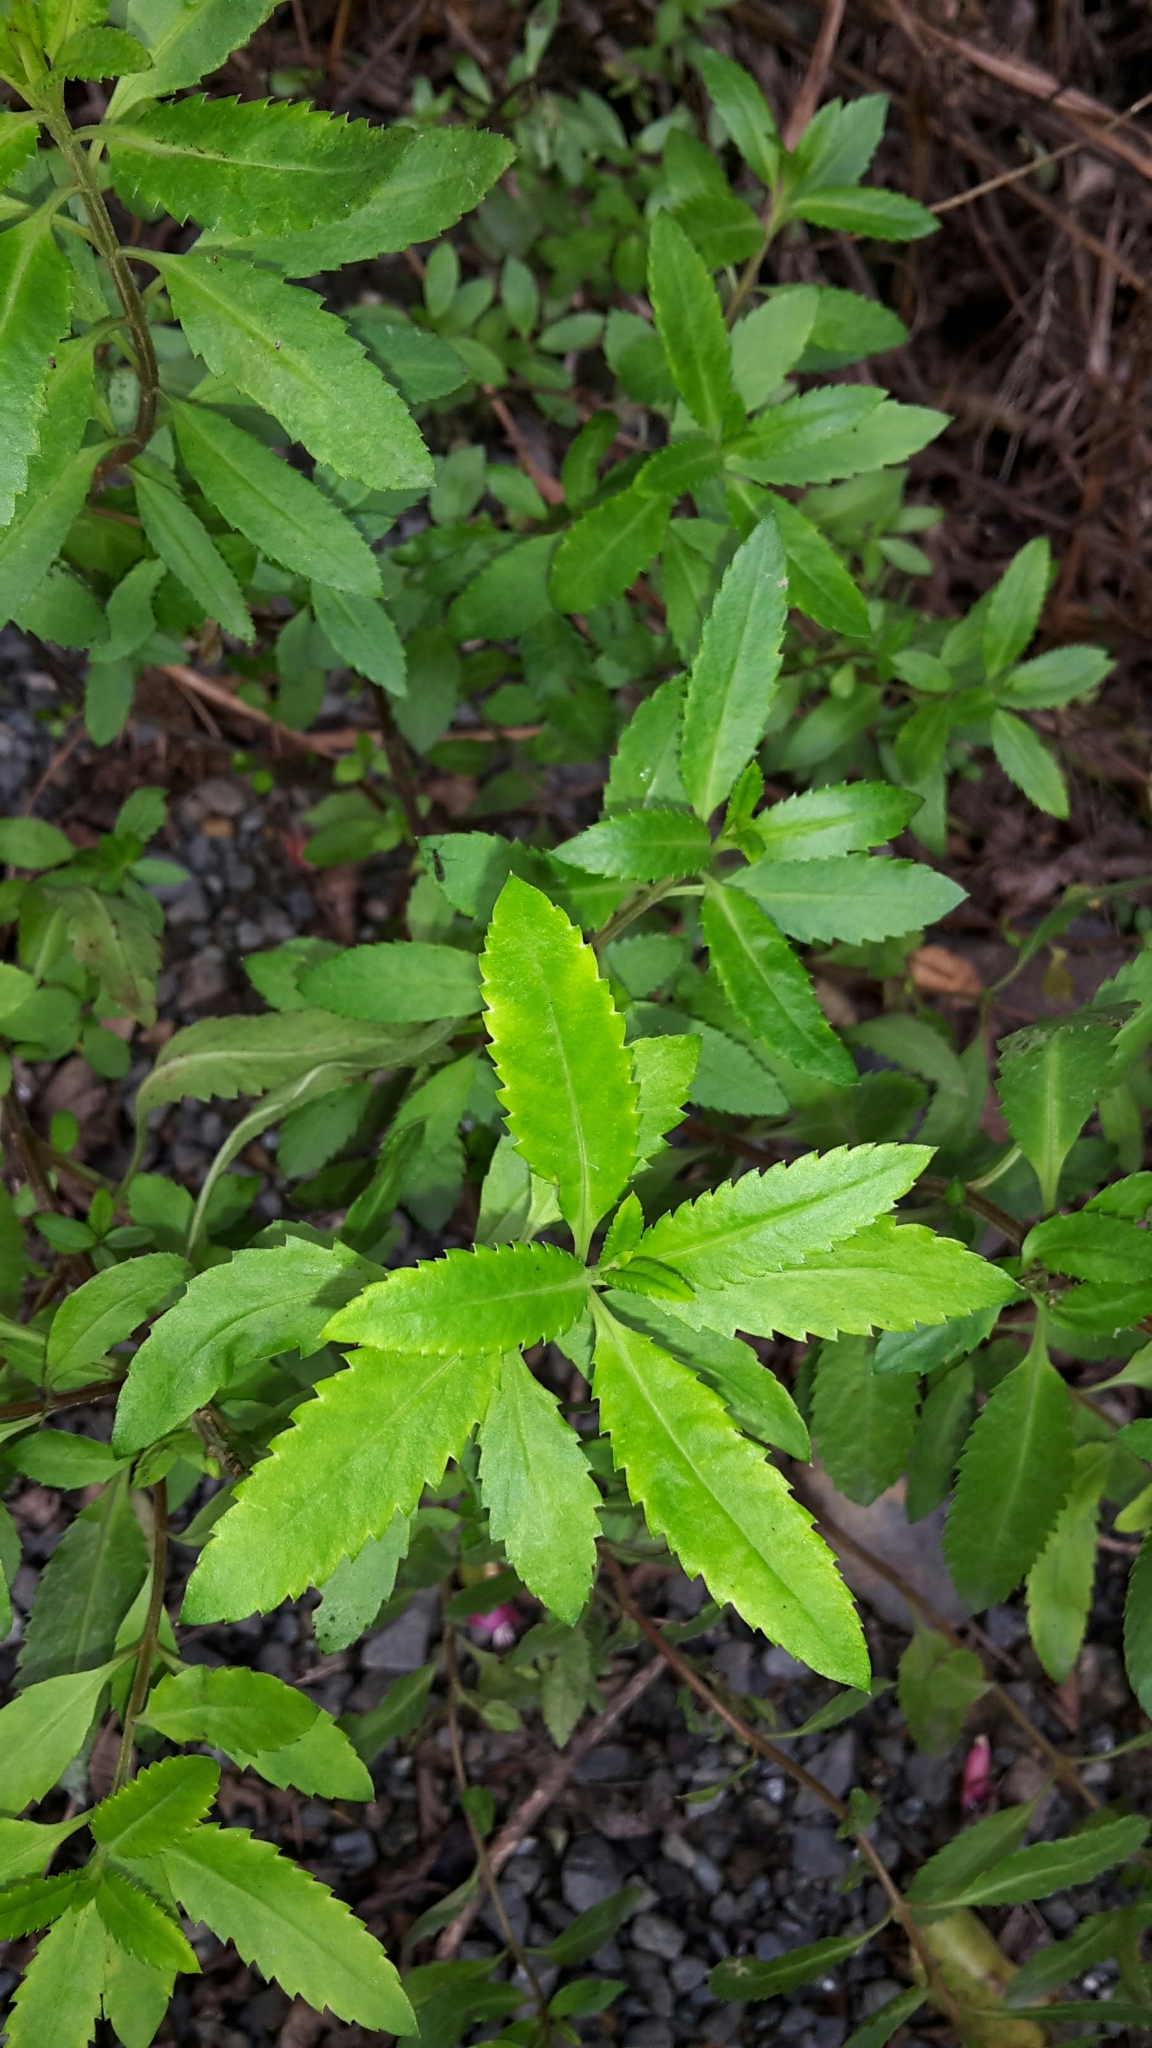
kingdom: Plantae
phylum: Tracheophyta
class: Magnoliopsida
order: Saxifragales
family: Haloragaceae
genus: Haloragis
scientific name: Haloragis erecta
